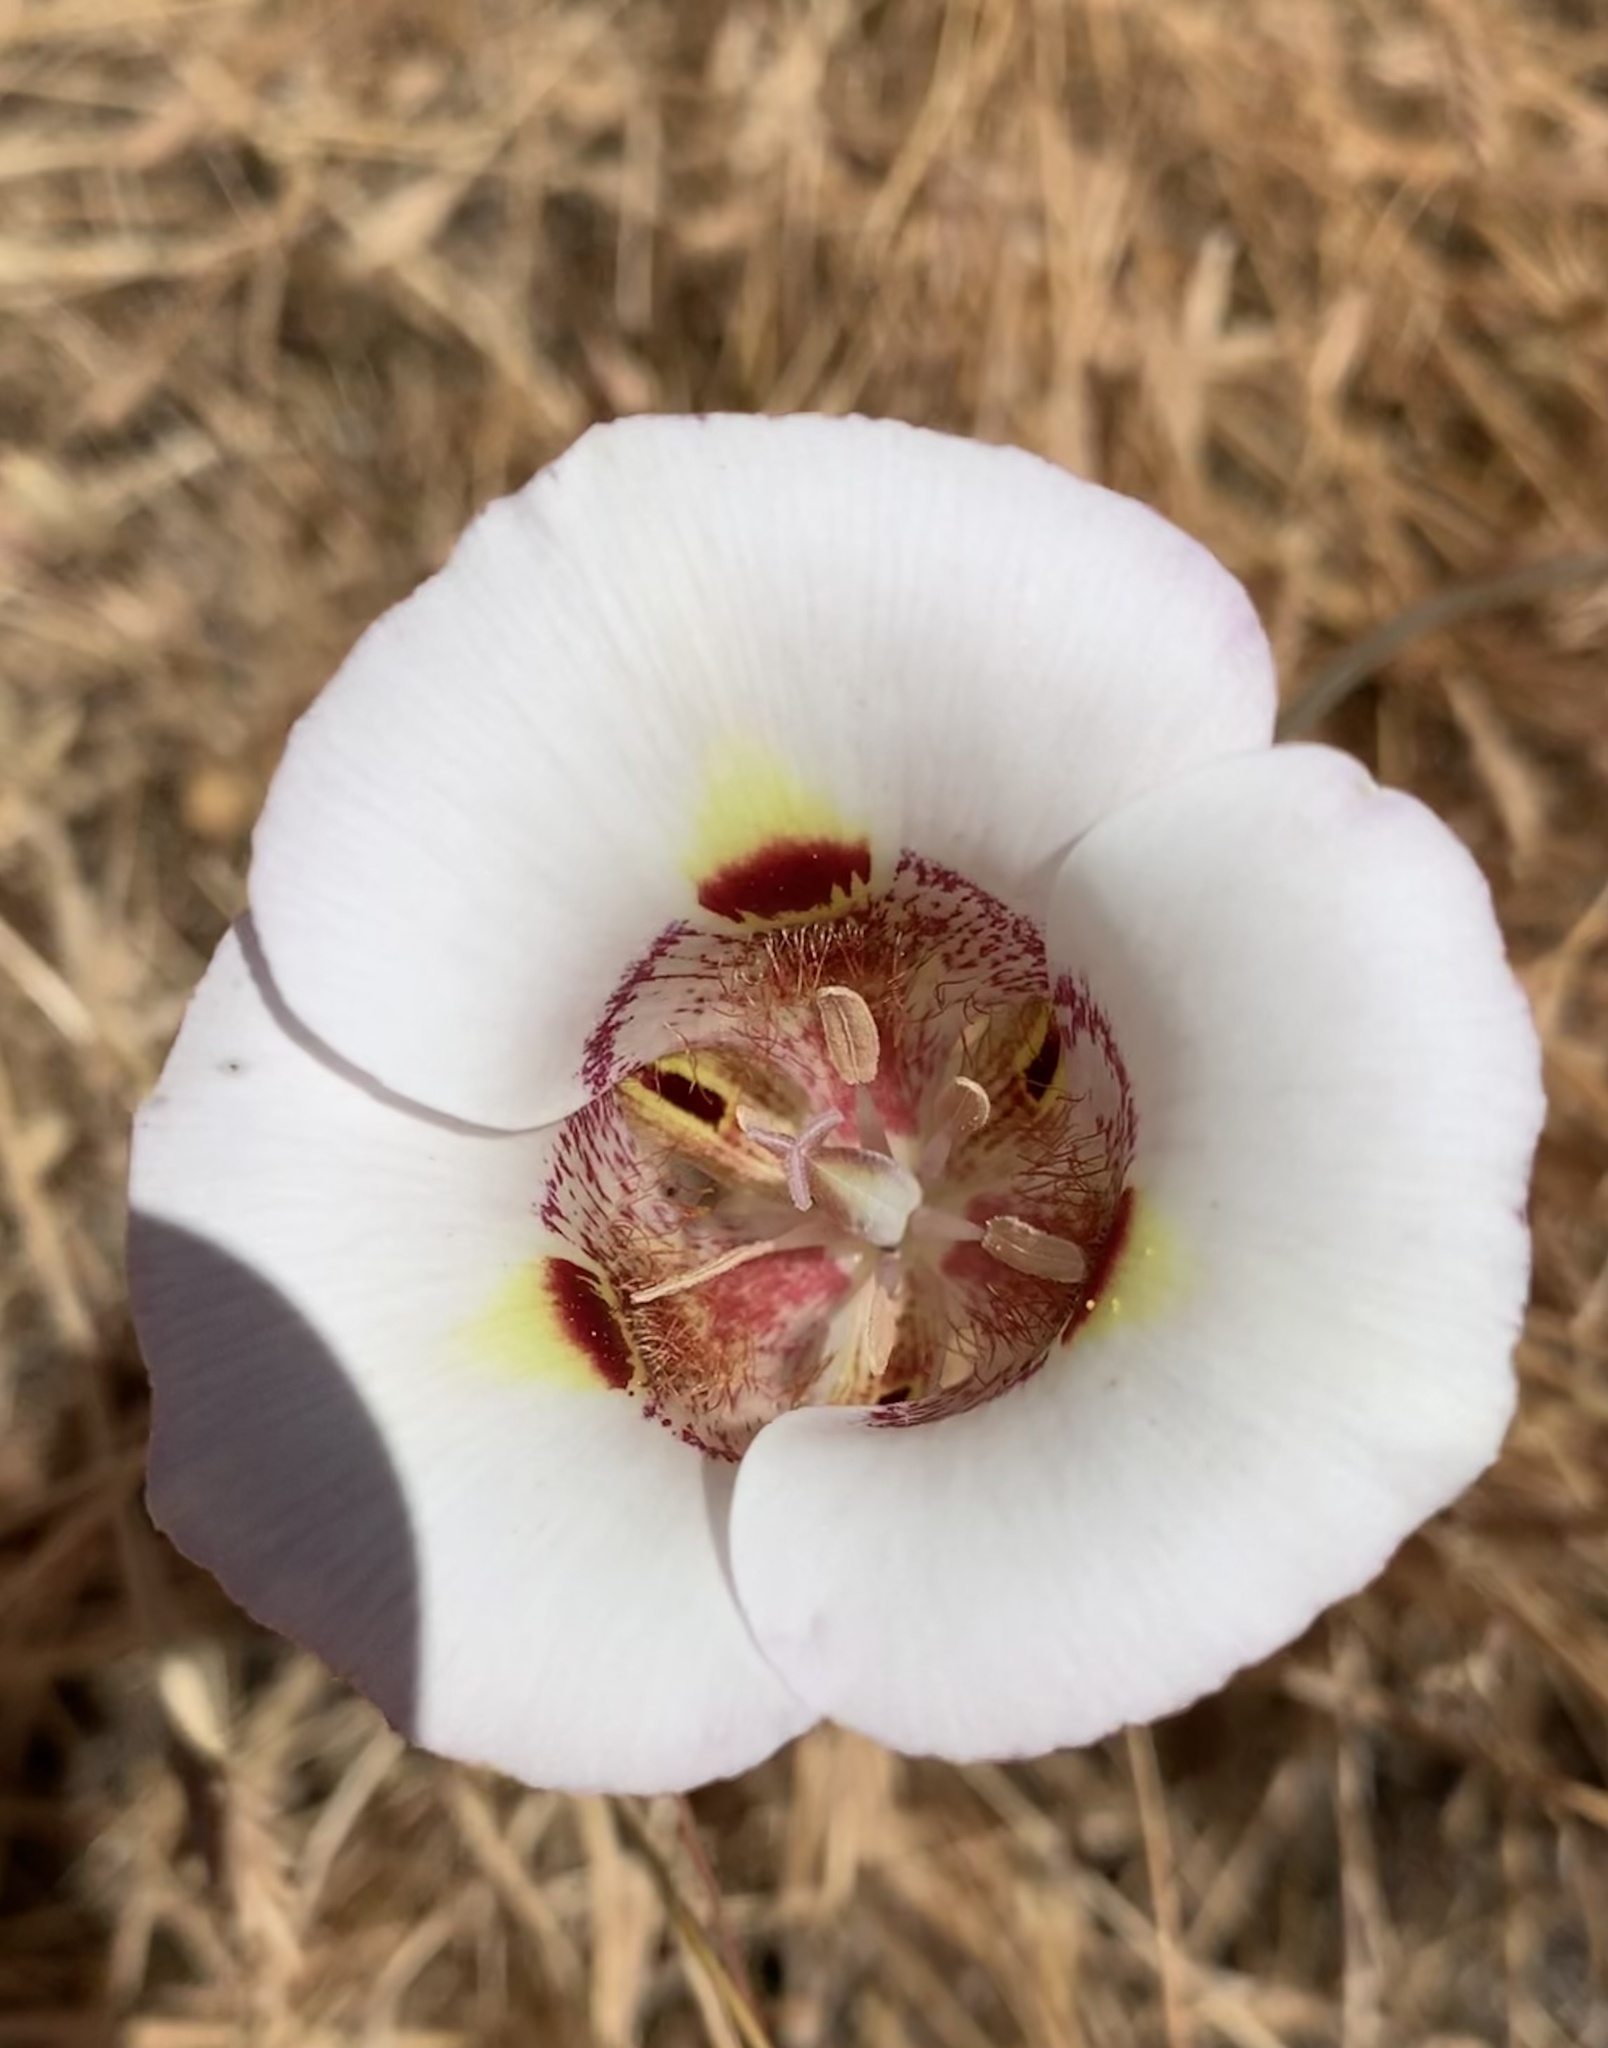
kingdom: Plantae
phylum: Tracheophyta
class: Liliopsida
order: Liliales
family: Liliaceae
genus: Calochortus
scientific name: Calochortus argillosus
